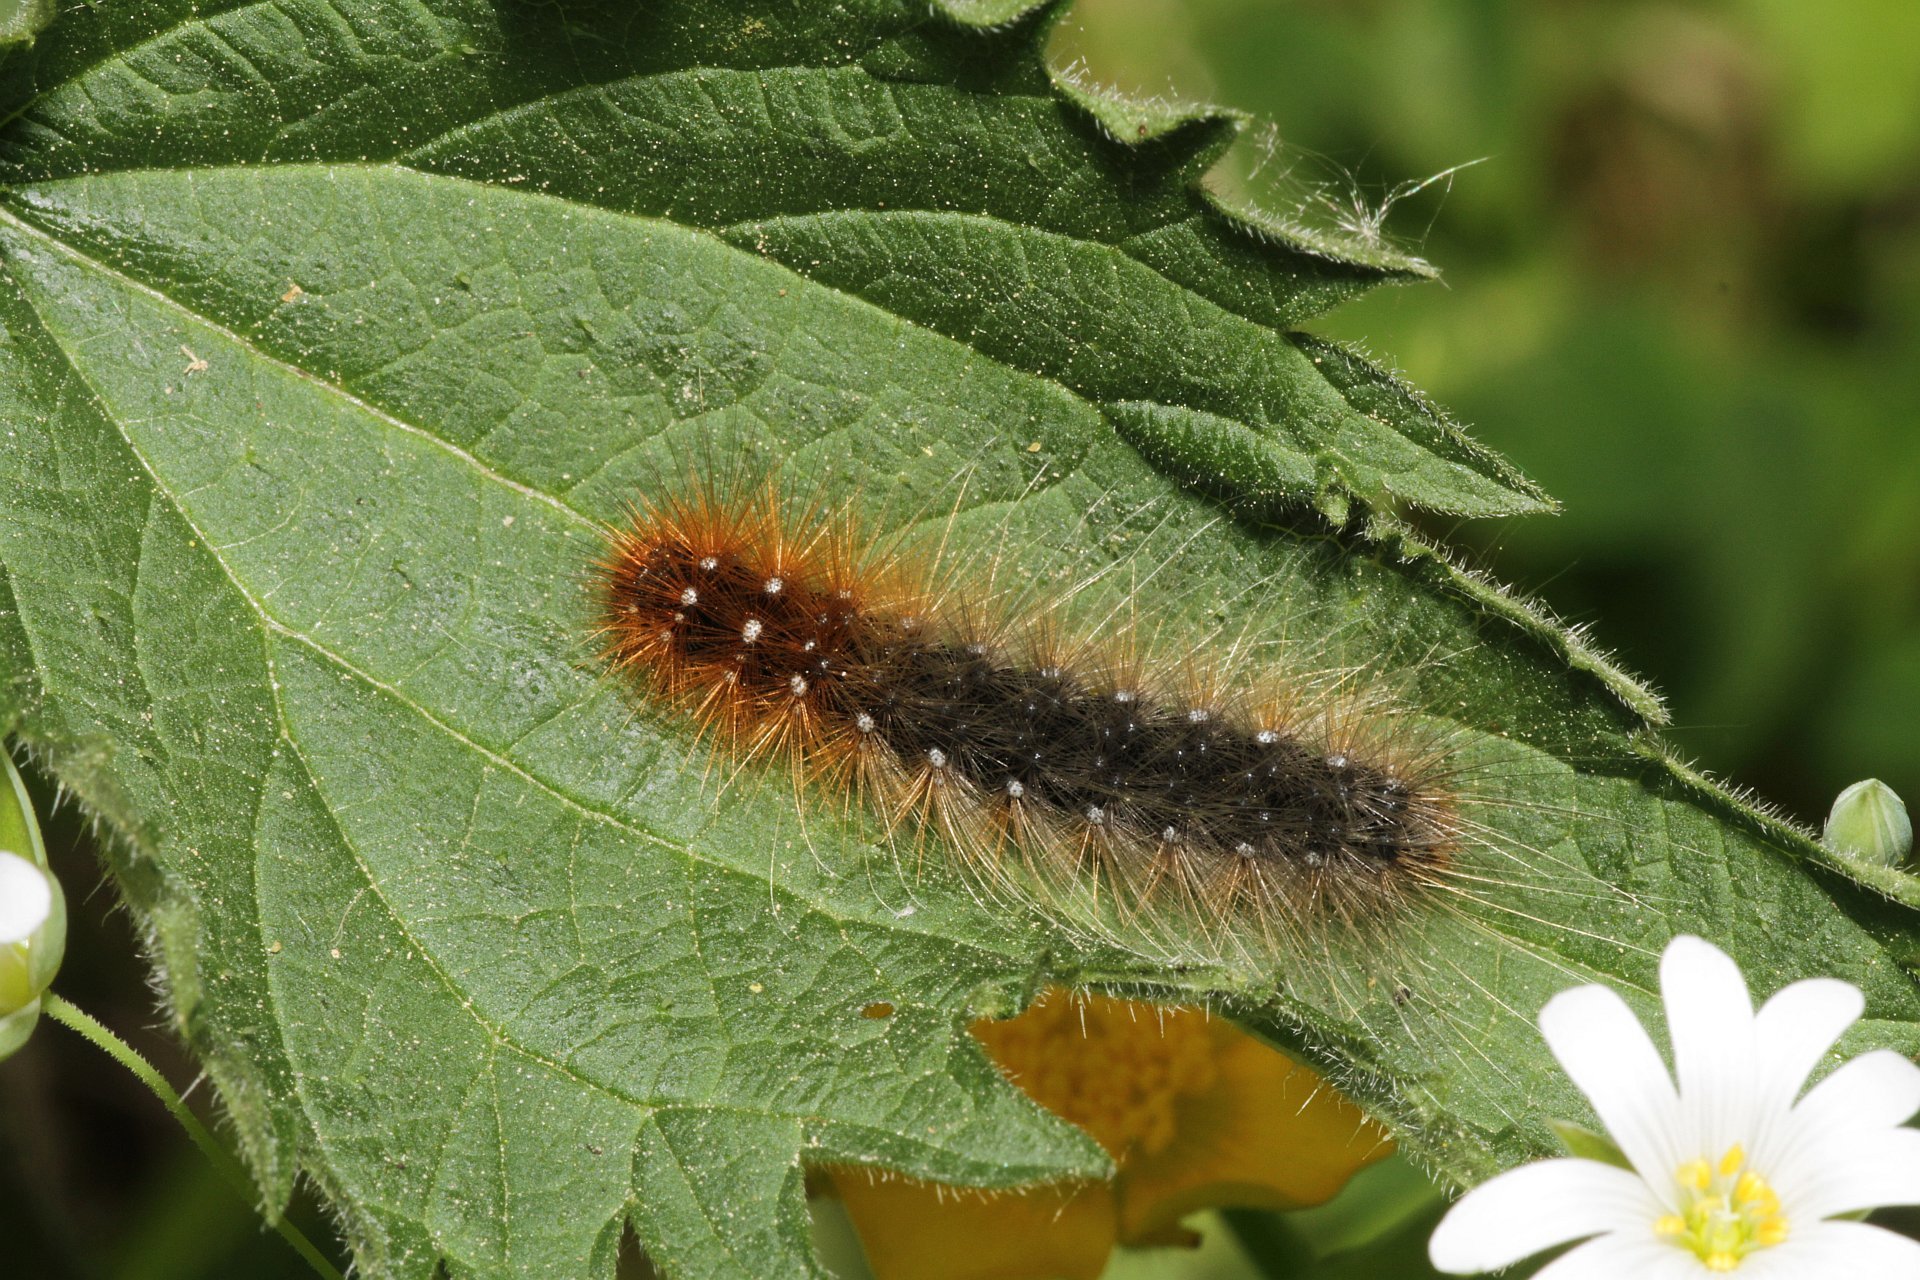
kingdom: Animalia
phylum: Arthropoda
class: Insecta
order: Lepidoptera
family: Erebidae
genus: Arctia
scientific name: Arctia caja
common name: Garden tiger
